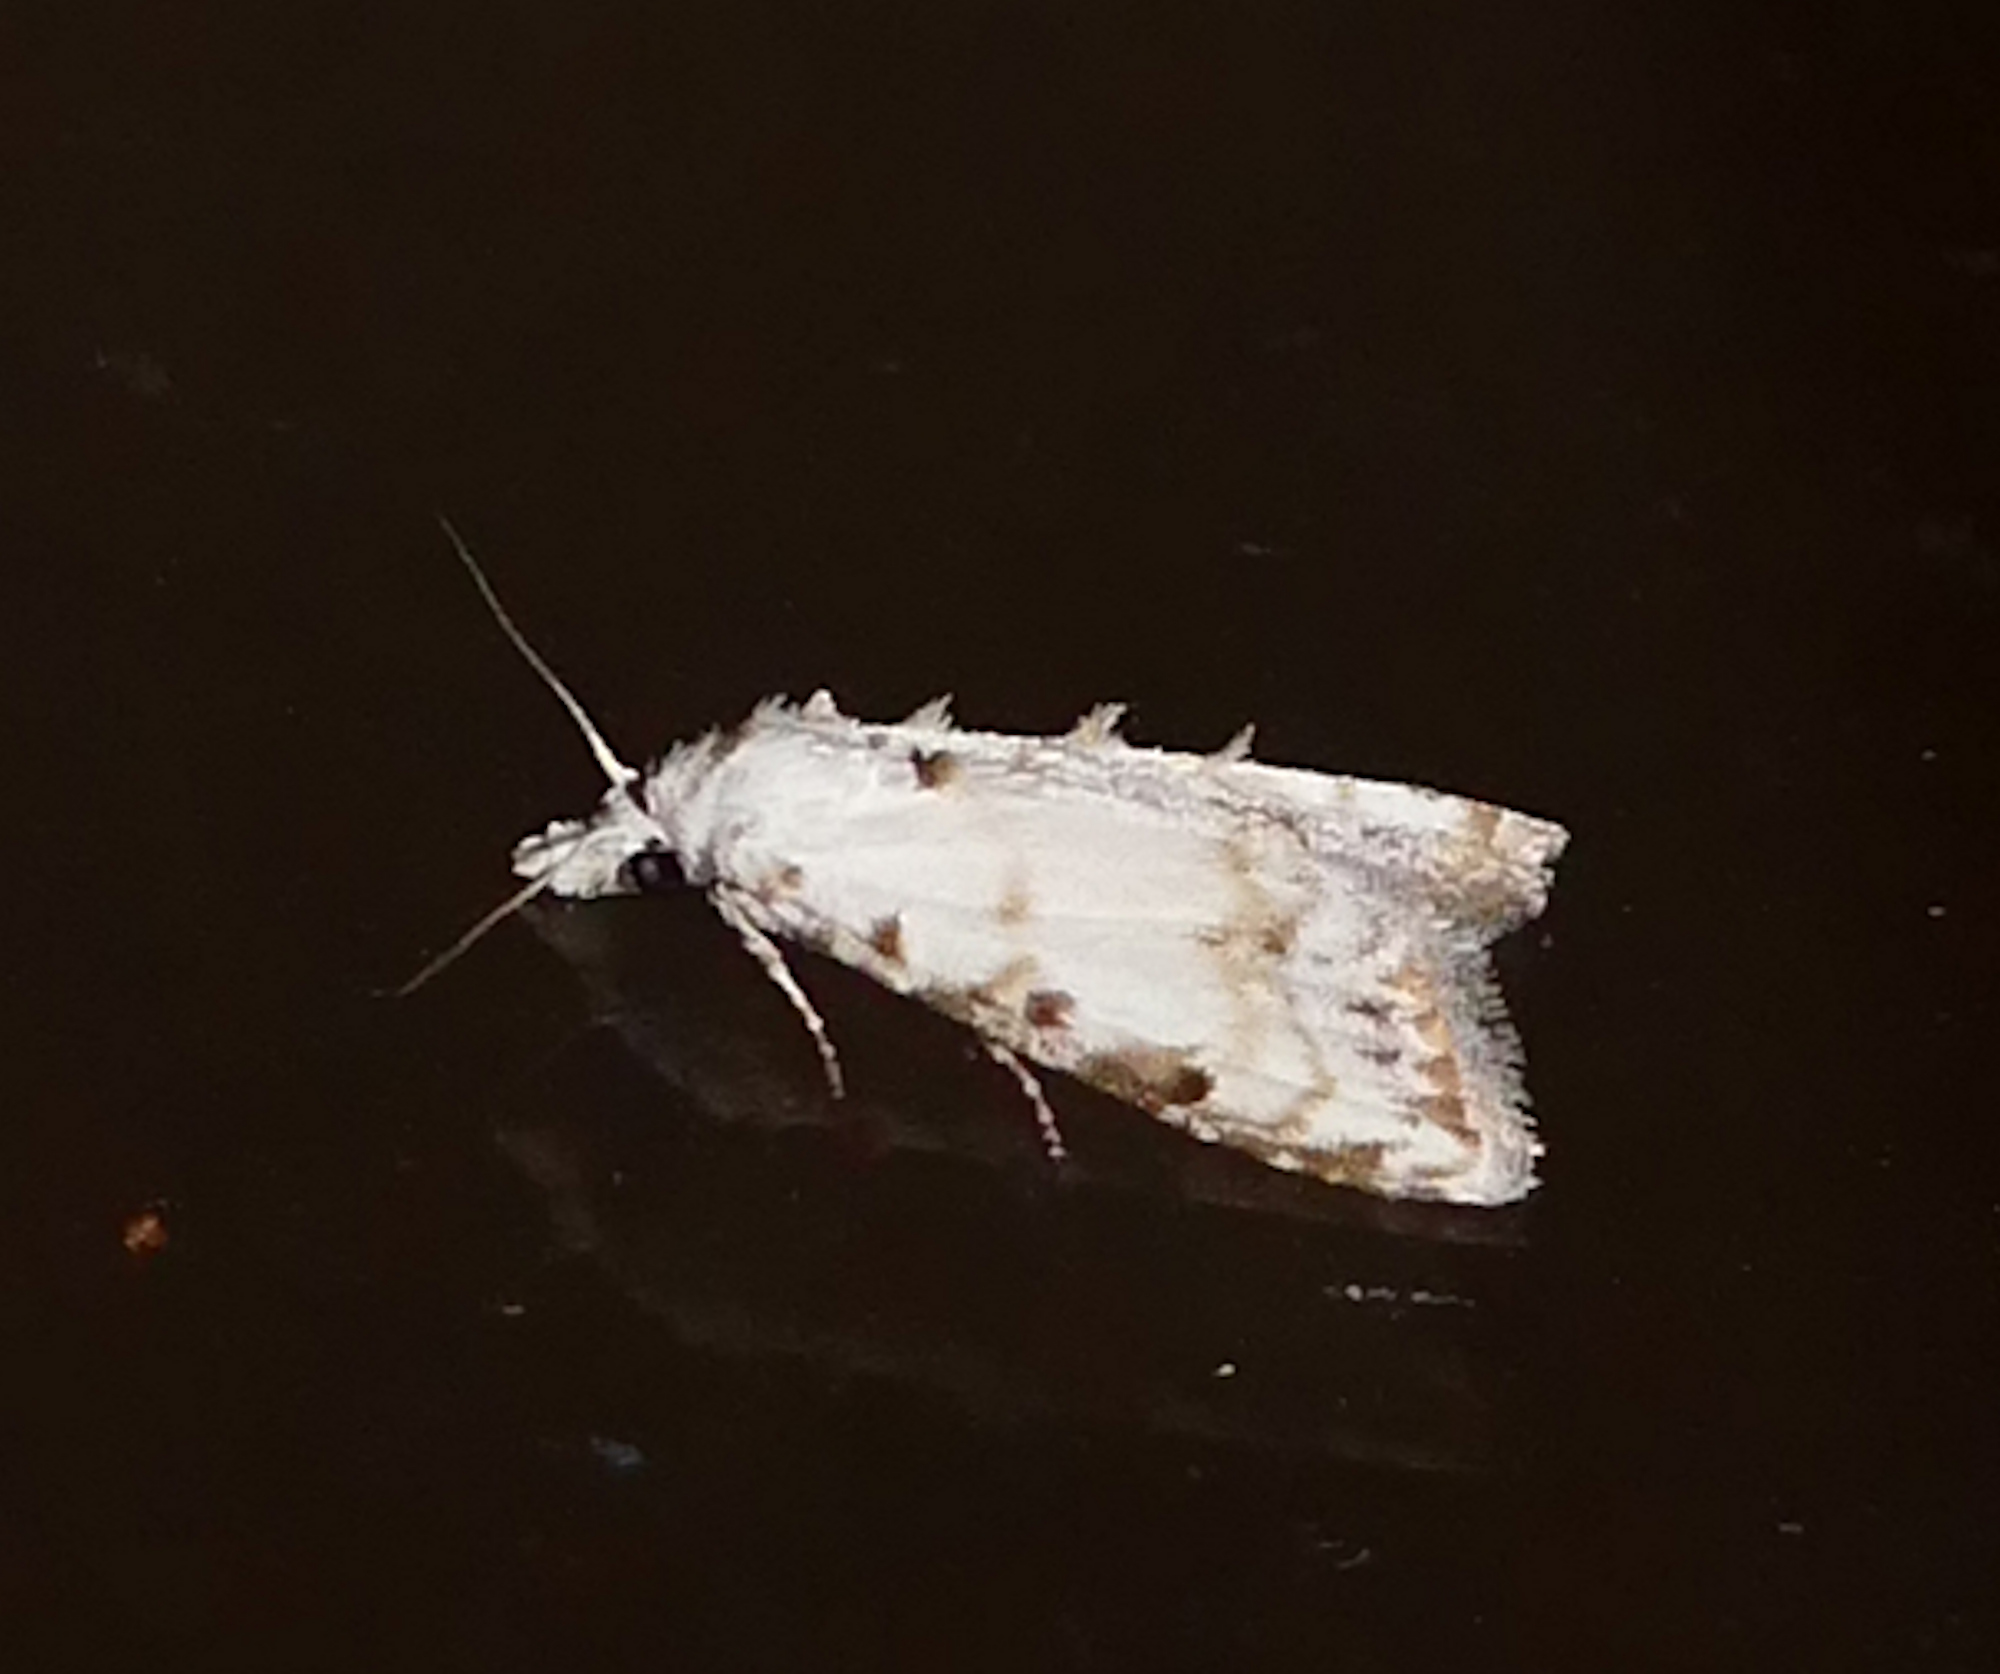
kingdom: Animalia
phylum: Arthropoda
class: Insecta
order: Lepidoptera
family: Nolidae
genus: Nola
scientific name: Nola cereella
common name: Sorghum webworm moth
